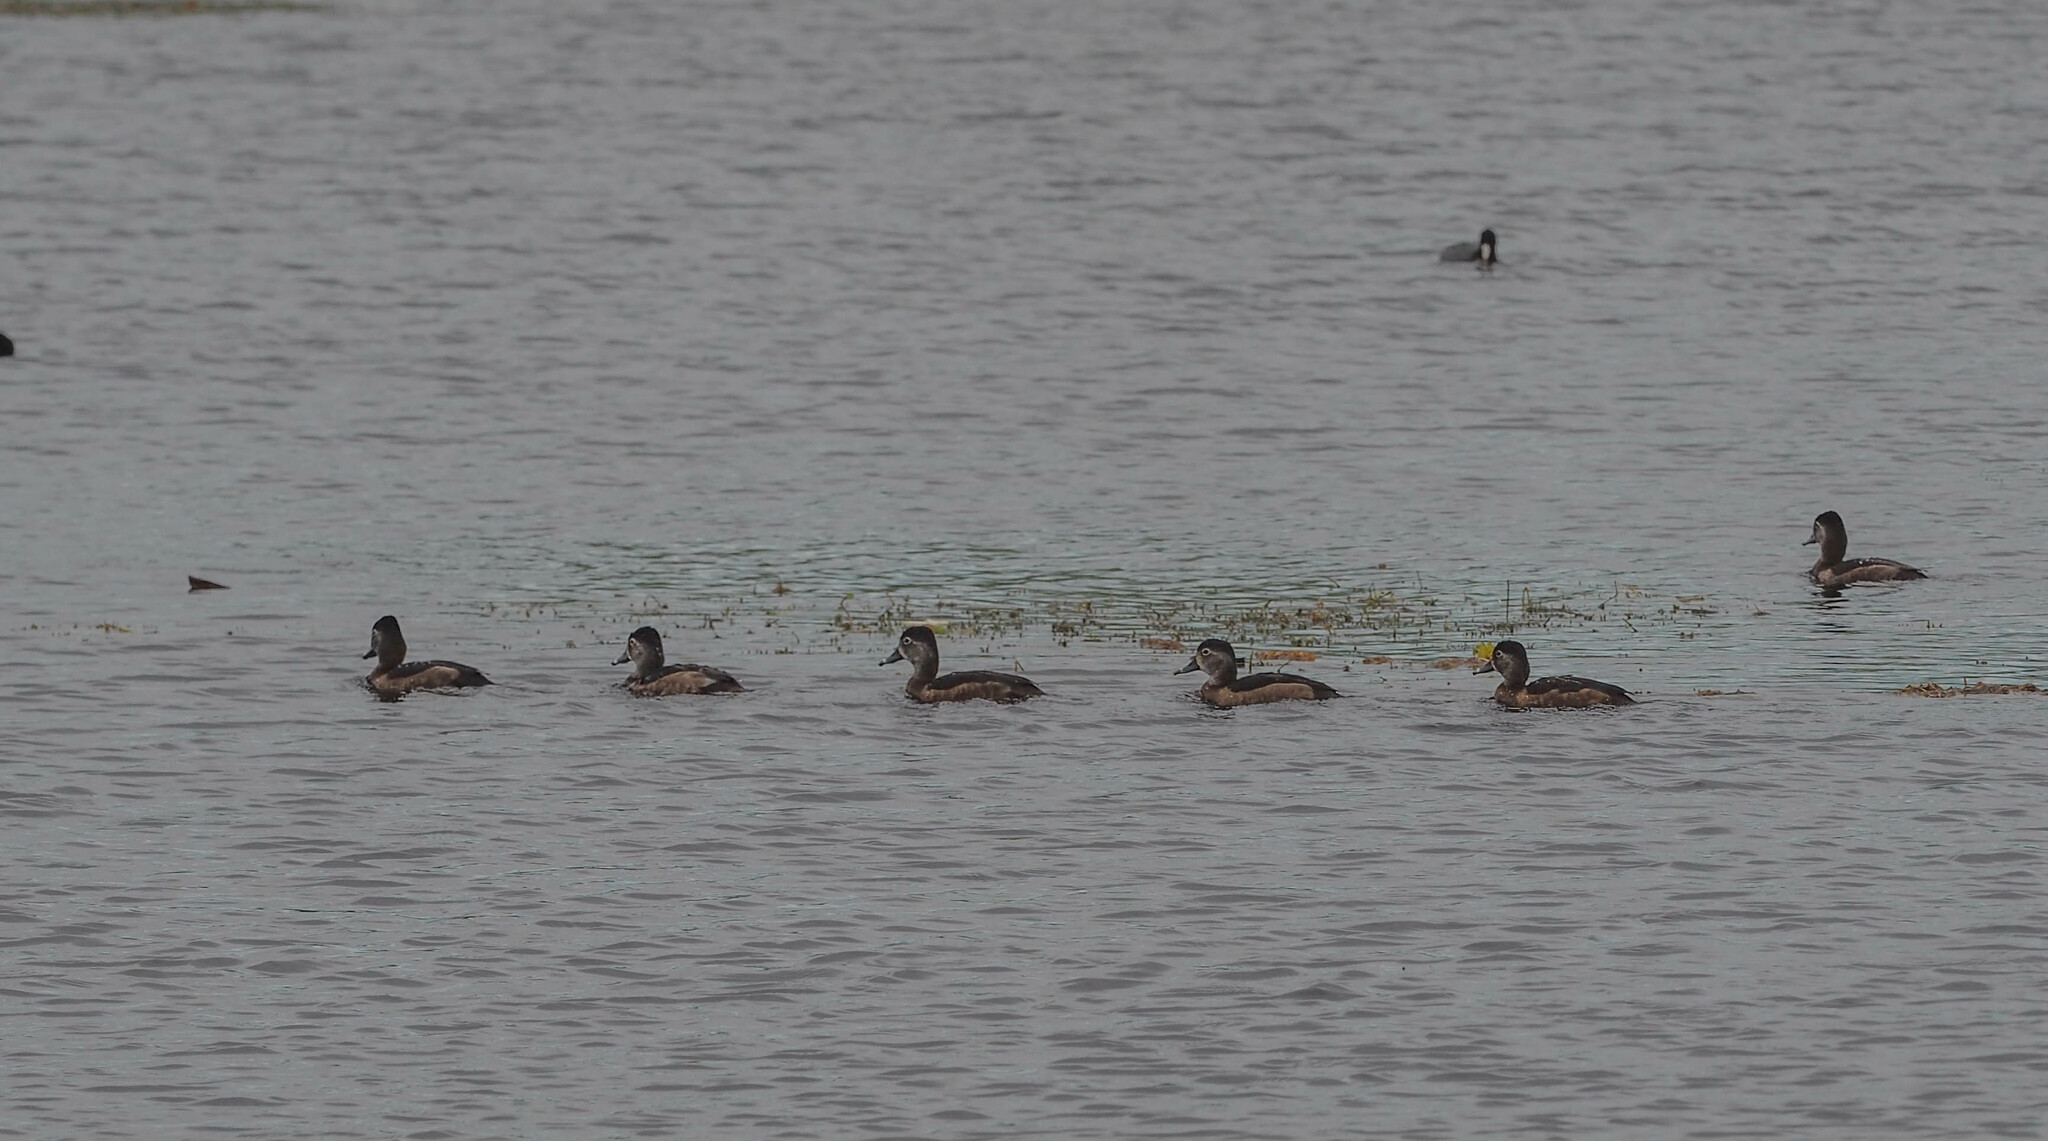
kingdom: Animalia
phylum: Chordata
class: Aves
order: Anseriformes
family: Anatidae
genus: Aythya
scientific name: Aythya collaris
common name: Ring-necked duck
